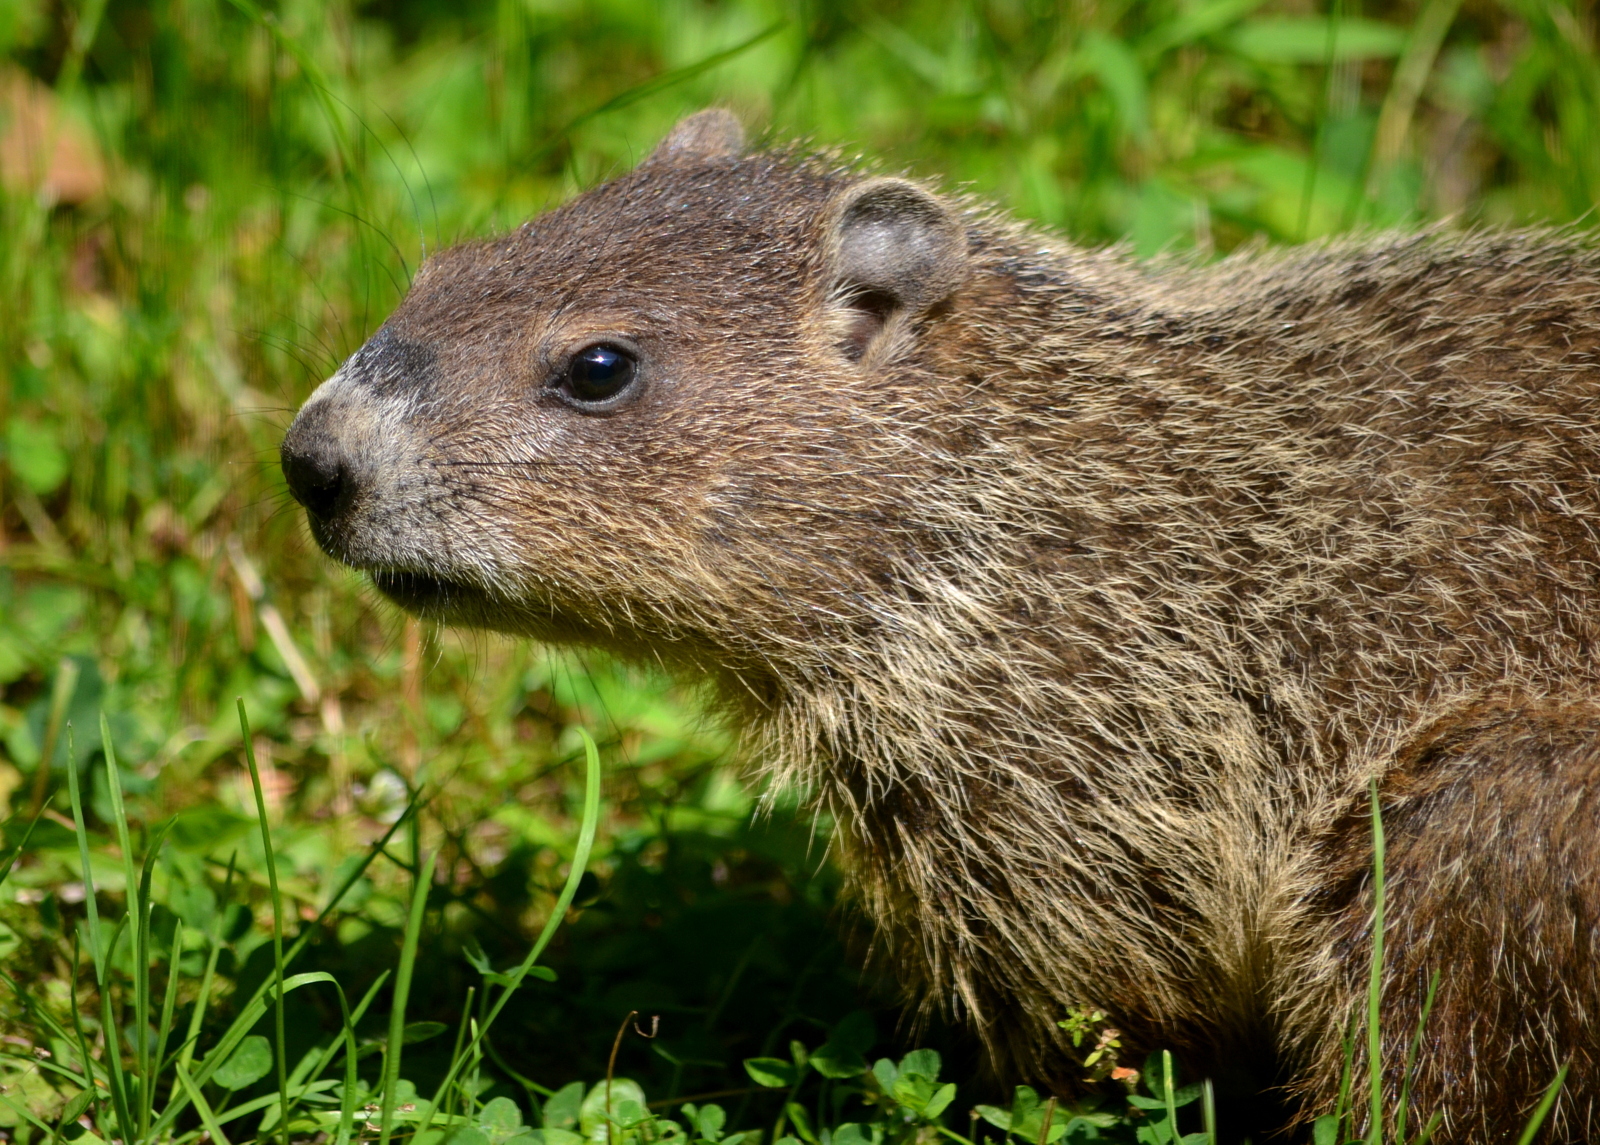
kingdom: Animalia
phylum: Chordata
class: Mammalia
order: Rodentia
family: Sciuridae
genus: Marmota
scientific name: Marmota monax
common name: Groundhog
